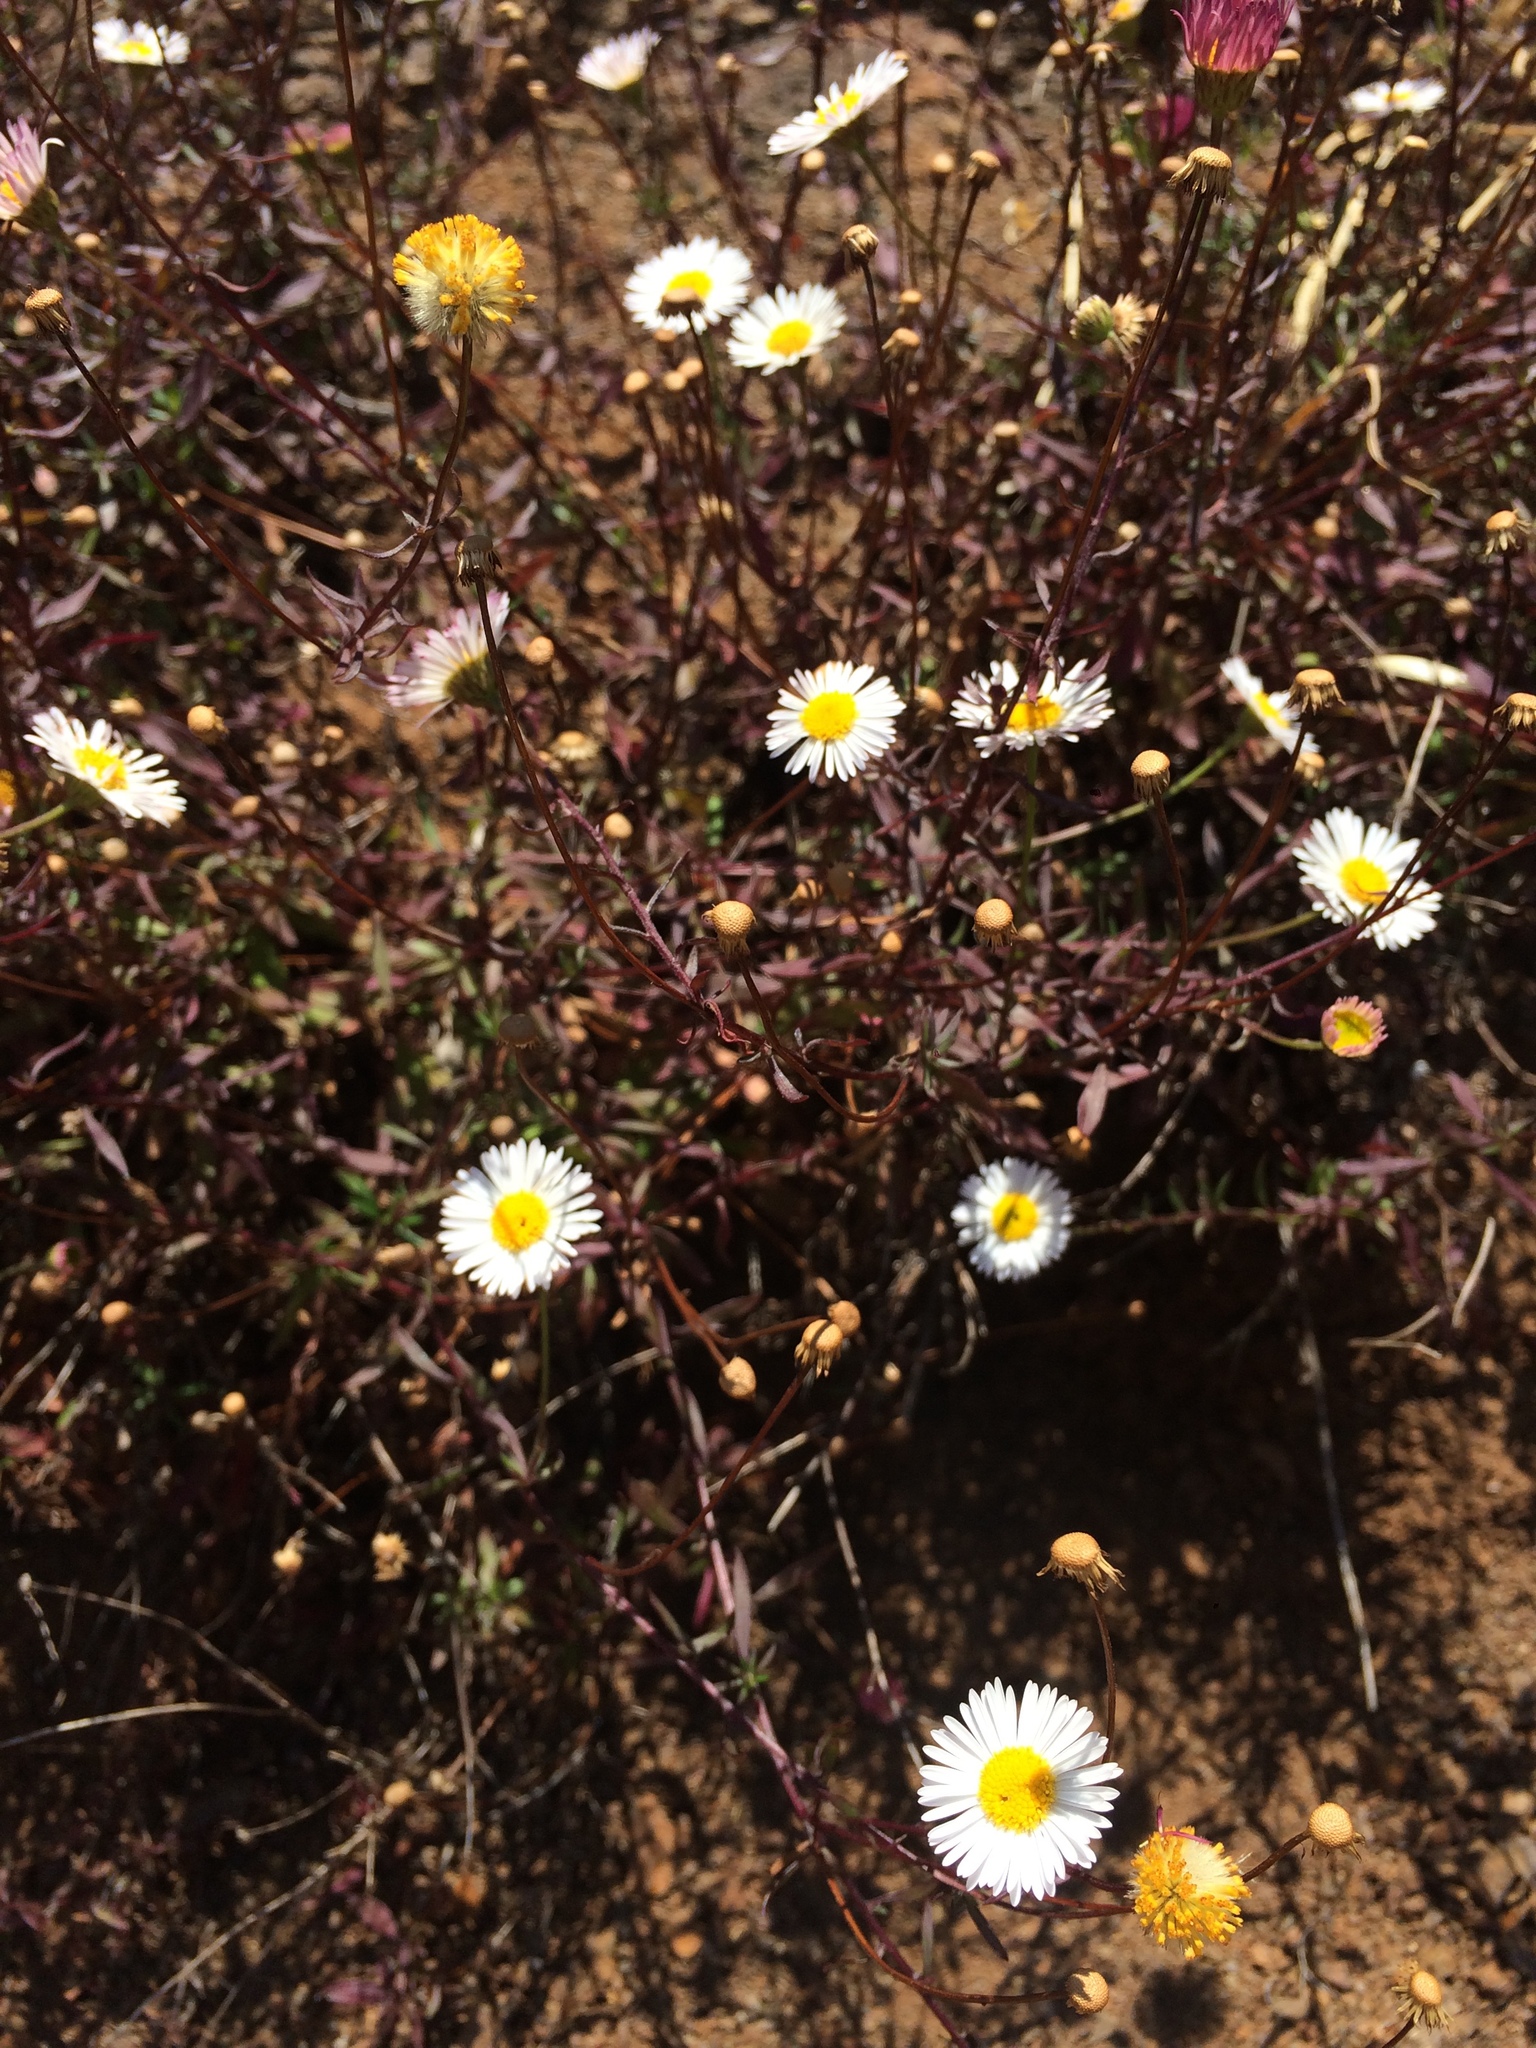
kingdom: Plantae
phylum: Tracheophyta
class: Magnoliopsida
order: Asterales
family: Asteraceae
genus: Erigeron
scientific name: Erigeron karvinskianus
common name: Mexican fleabane
